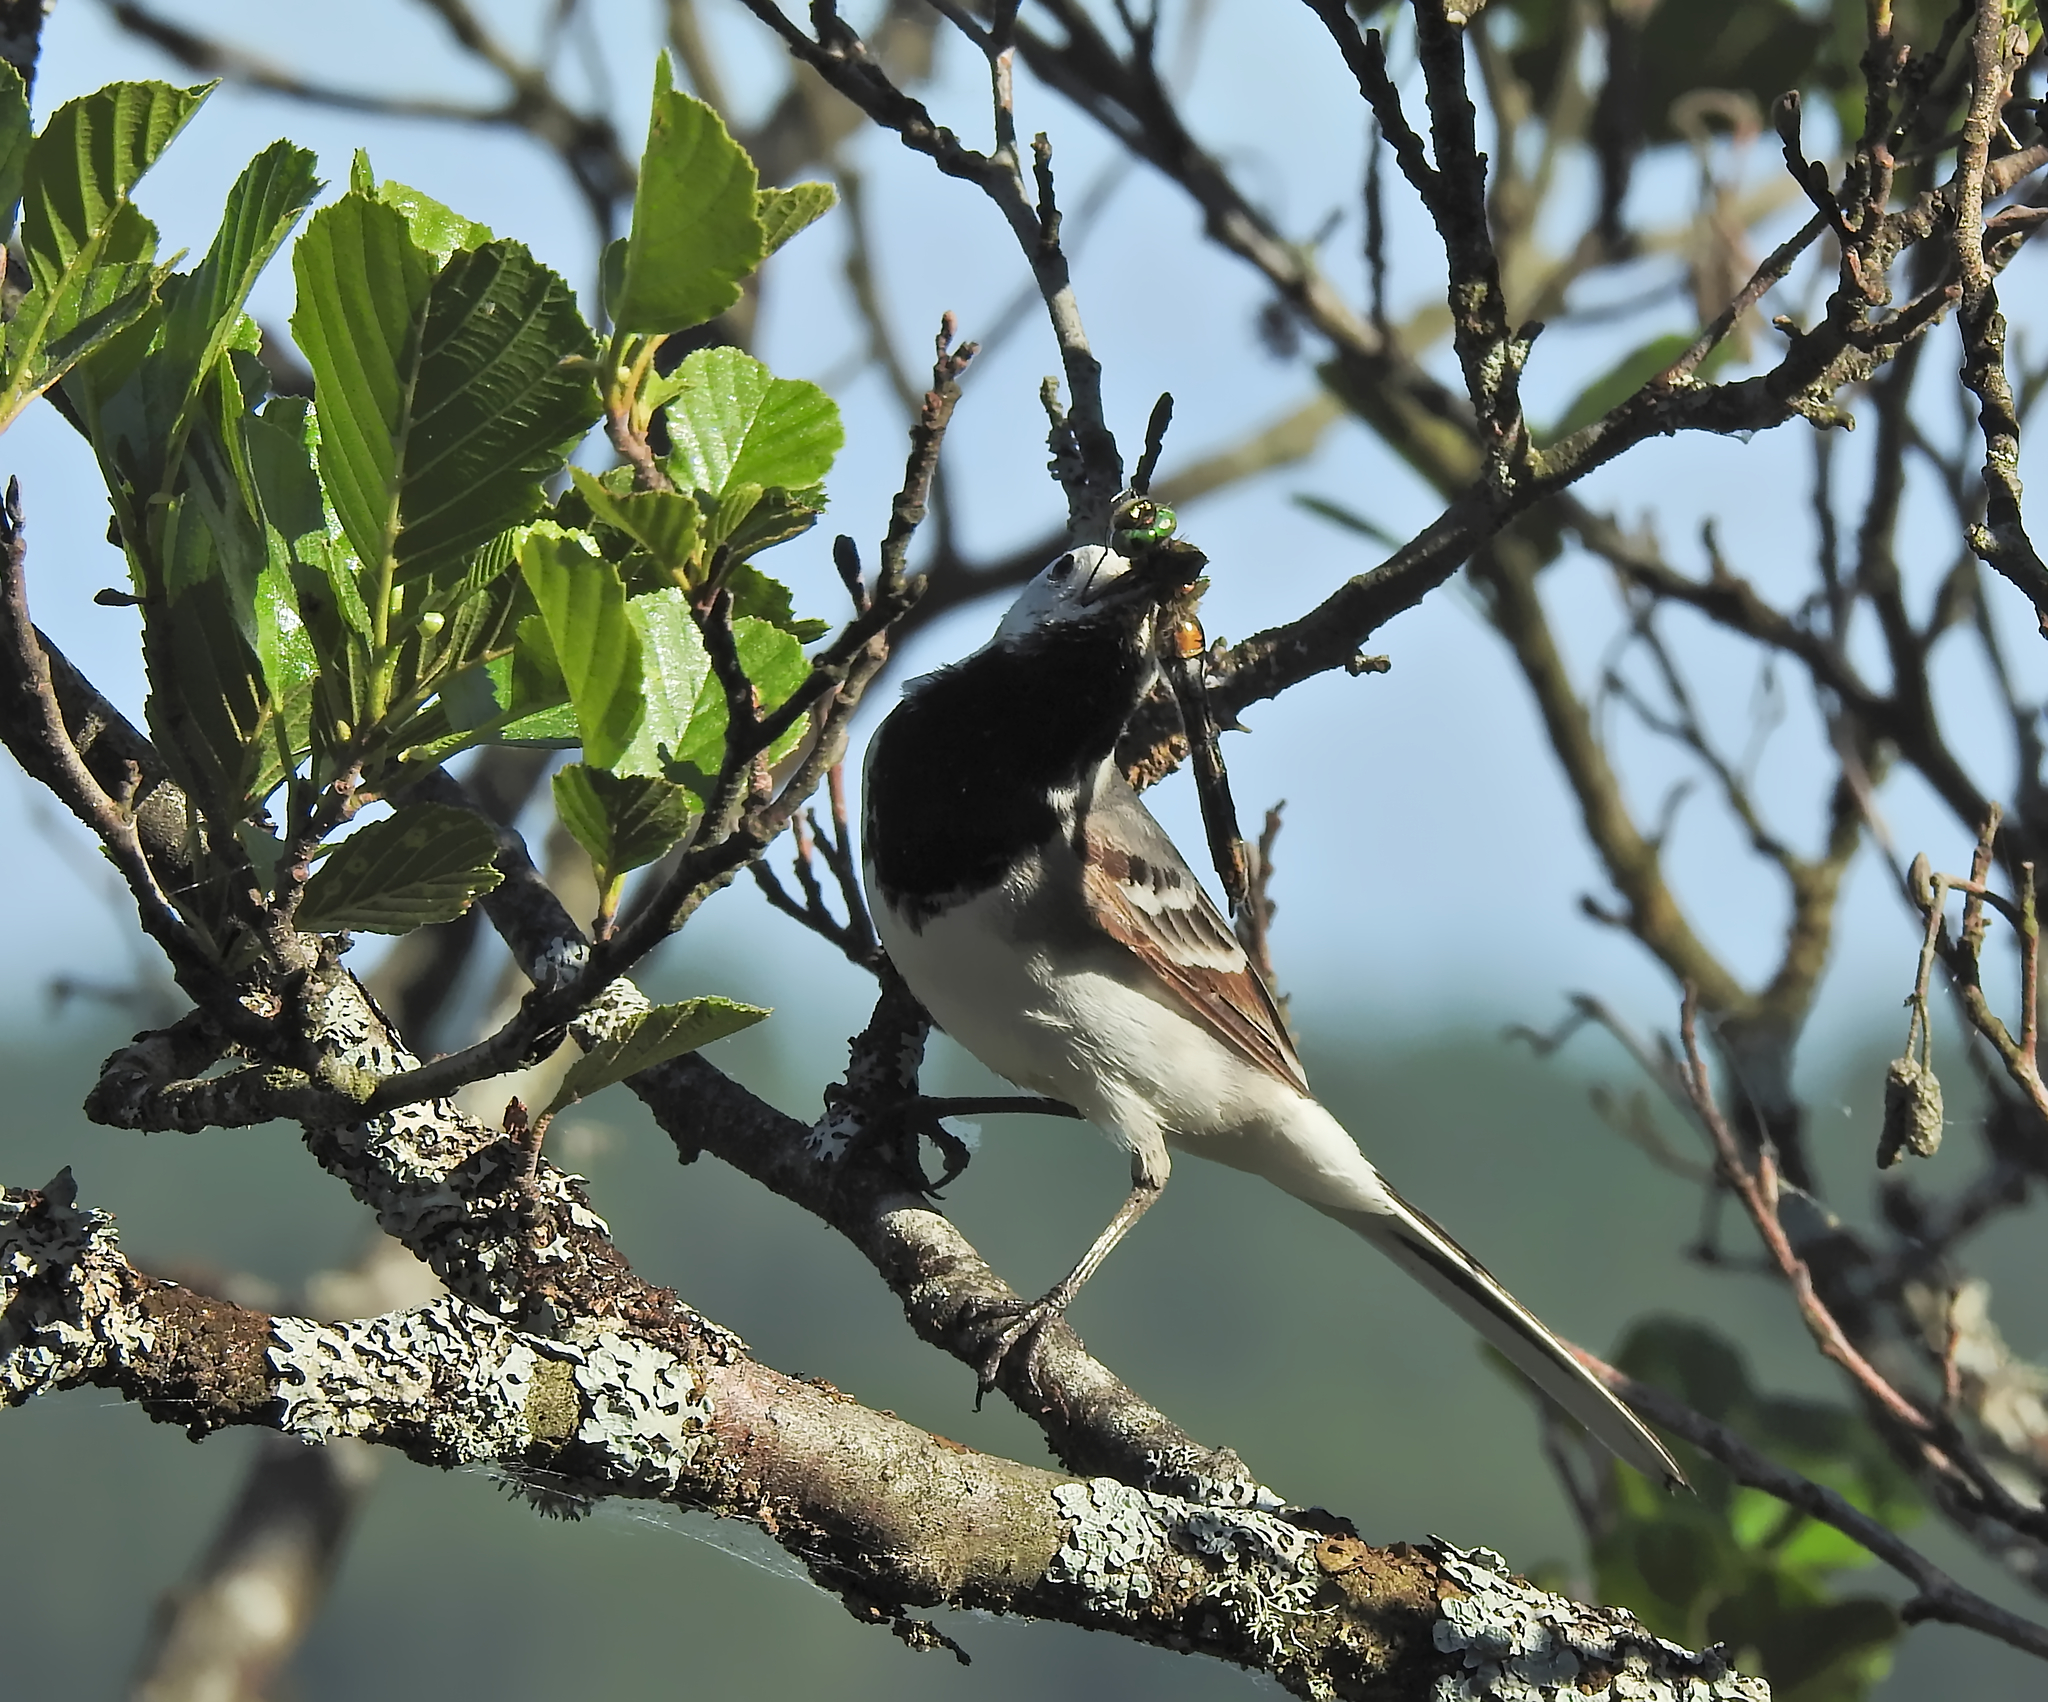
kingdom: Animalia
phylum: Arthropoda
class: Insecta
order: Odonata
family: Corduliidae
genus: Cordulia
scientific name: Cordulia aenea
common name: Downy emerald
